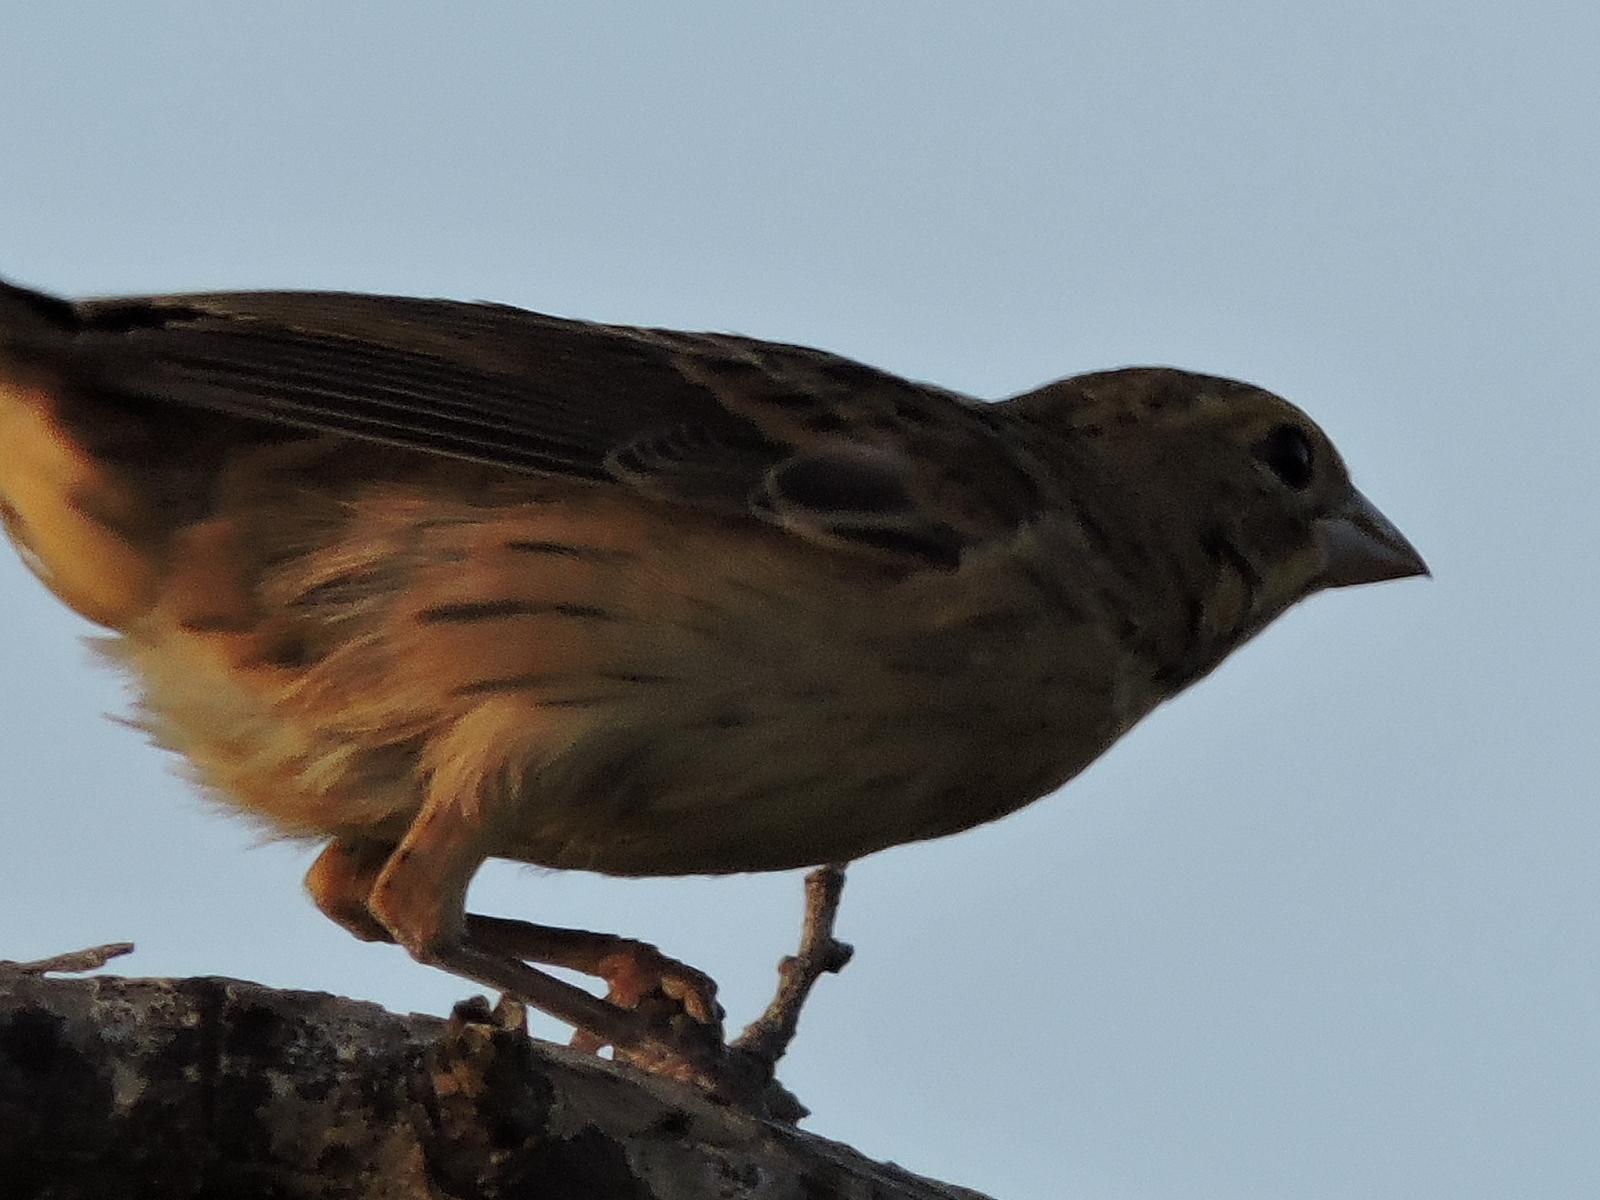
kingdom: Animalia
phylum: Chordata
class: Aves
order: Passeriformes
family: Cardinalidae
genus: Spiza
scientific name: Spiza americana
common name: Dickcissel
